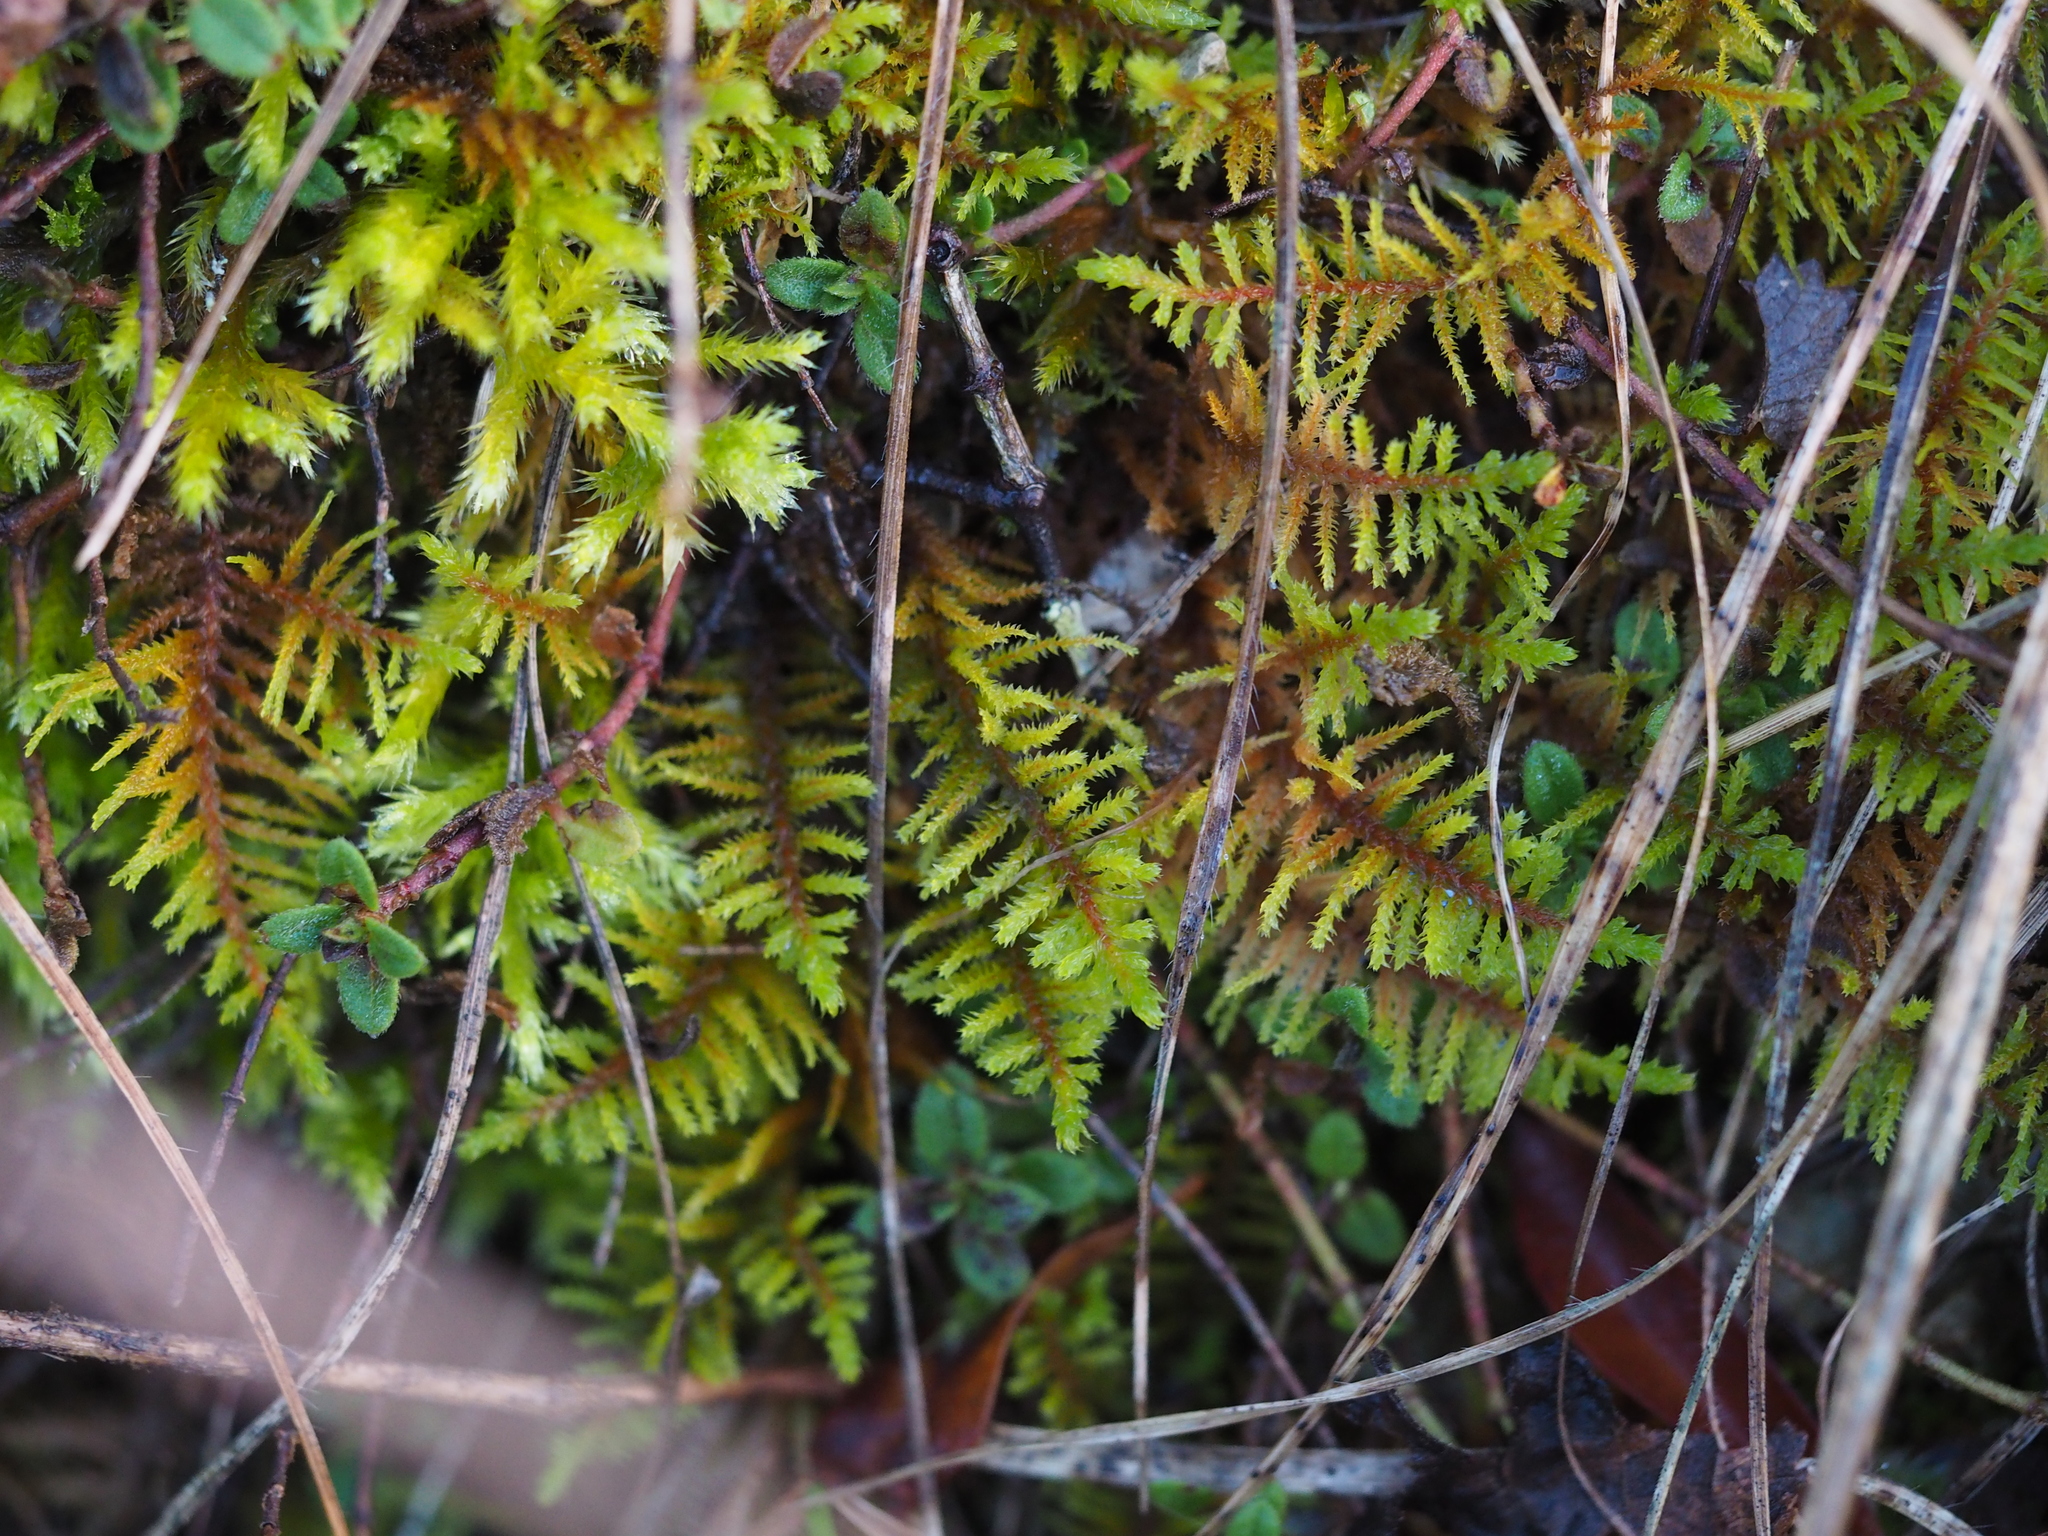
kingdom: Plantae
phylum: Bryophyta
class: Bryopsida
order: Hypnales
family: Thuidiaceae
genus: Abietinella
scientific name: Abietinella abietina
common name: Wiry fern moss
